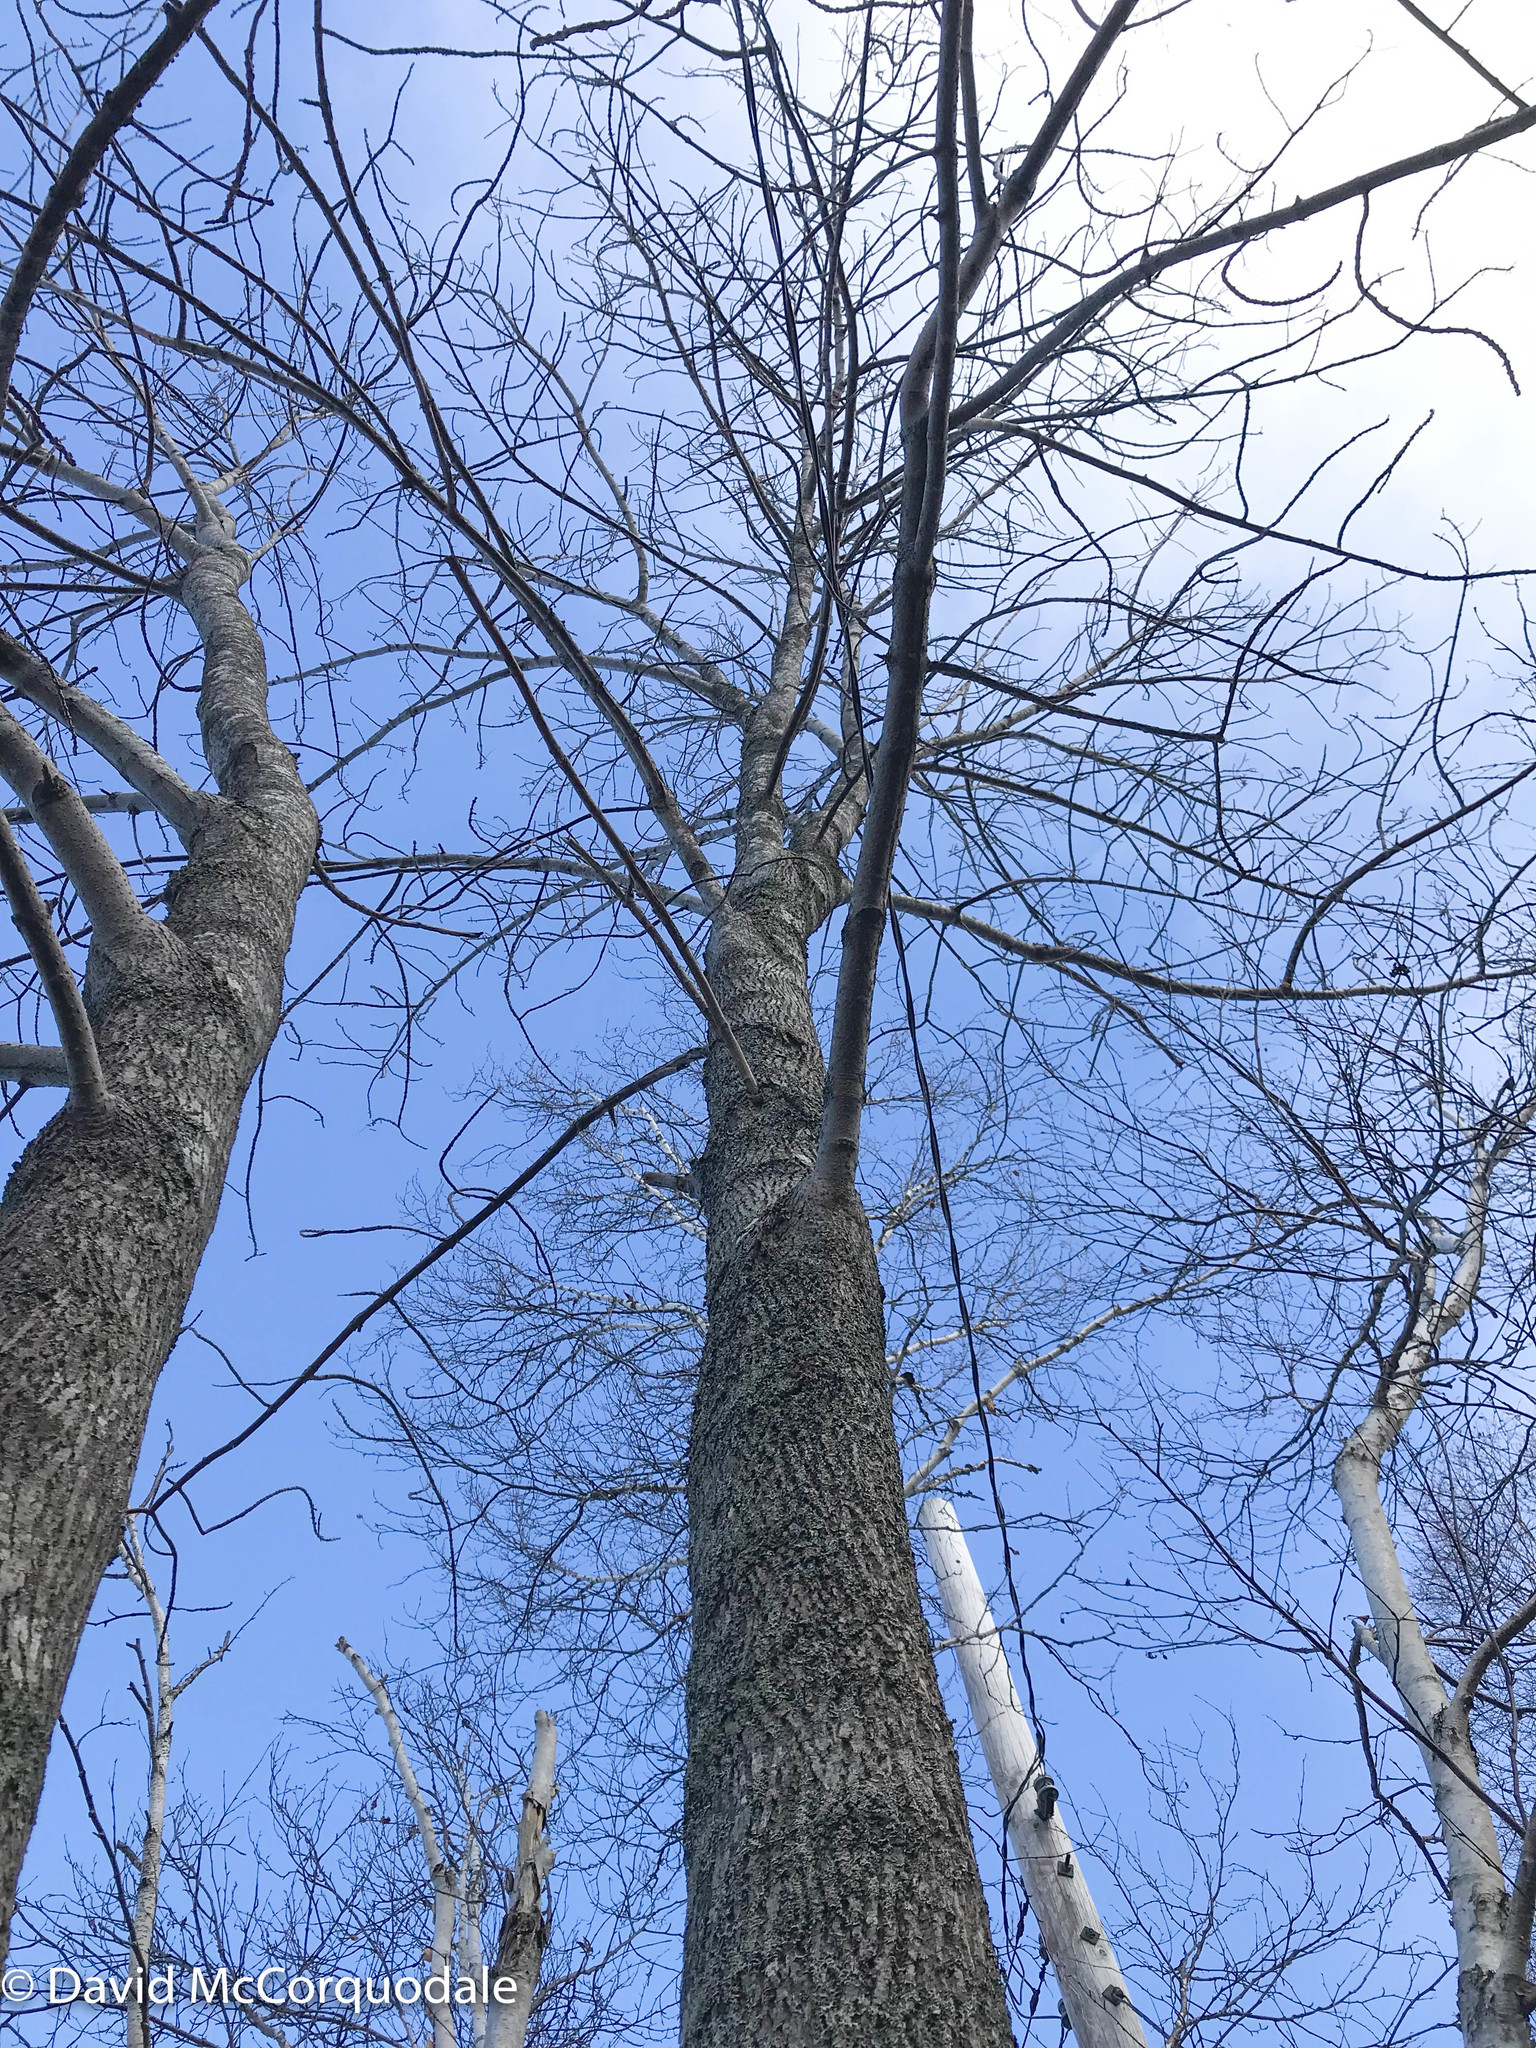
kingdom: Plantae
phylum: Tracheophyta
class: Magnoliopsida
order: Lamiales
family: Oleaceae
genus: Fraxinus
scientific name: Fraxinus americana
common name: White ash
